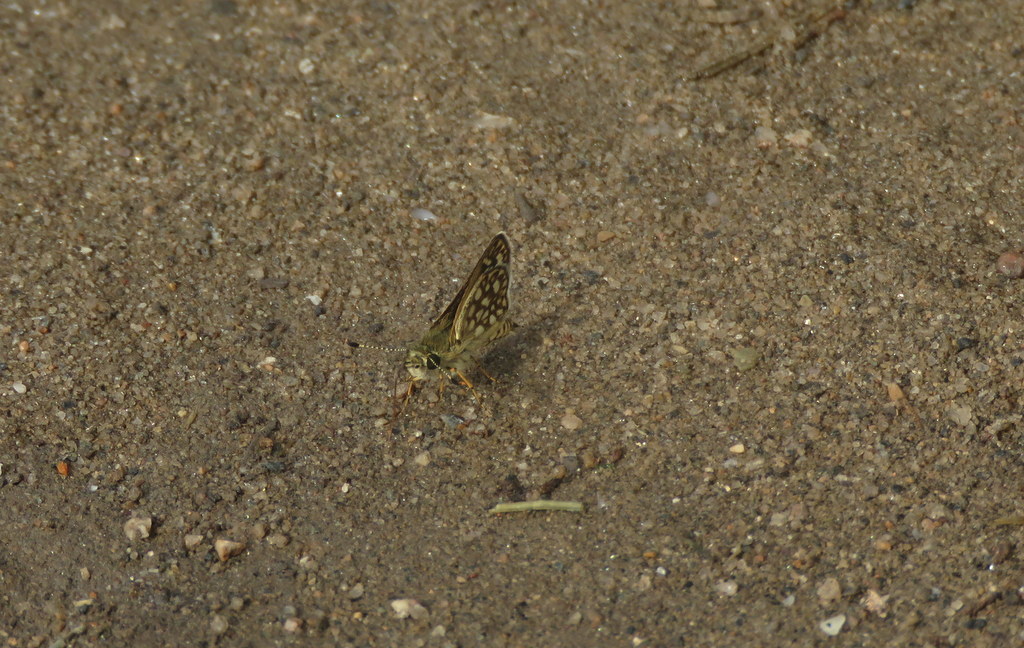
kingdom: Animalia
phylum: Arthropoda
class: Insecta
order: Lepidoptera
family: Hesperiidae
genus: Dardarina
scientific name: Dardarina tessellatus
